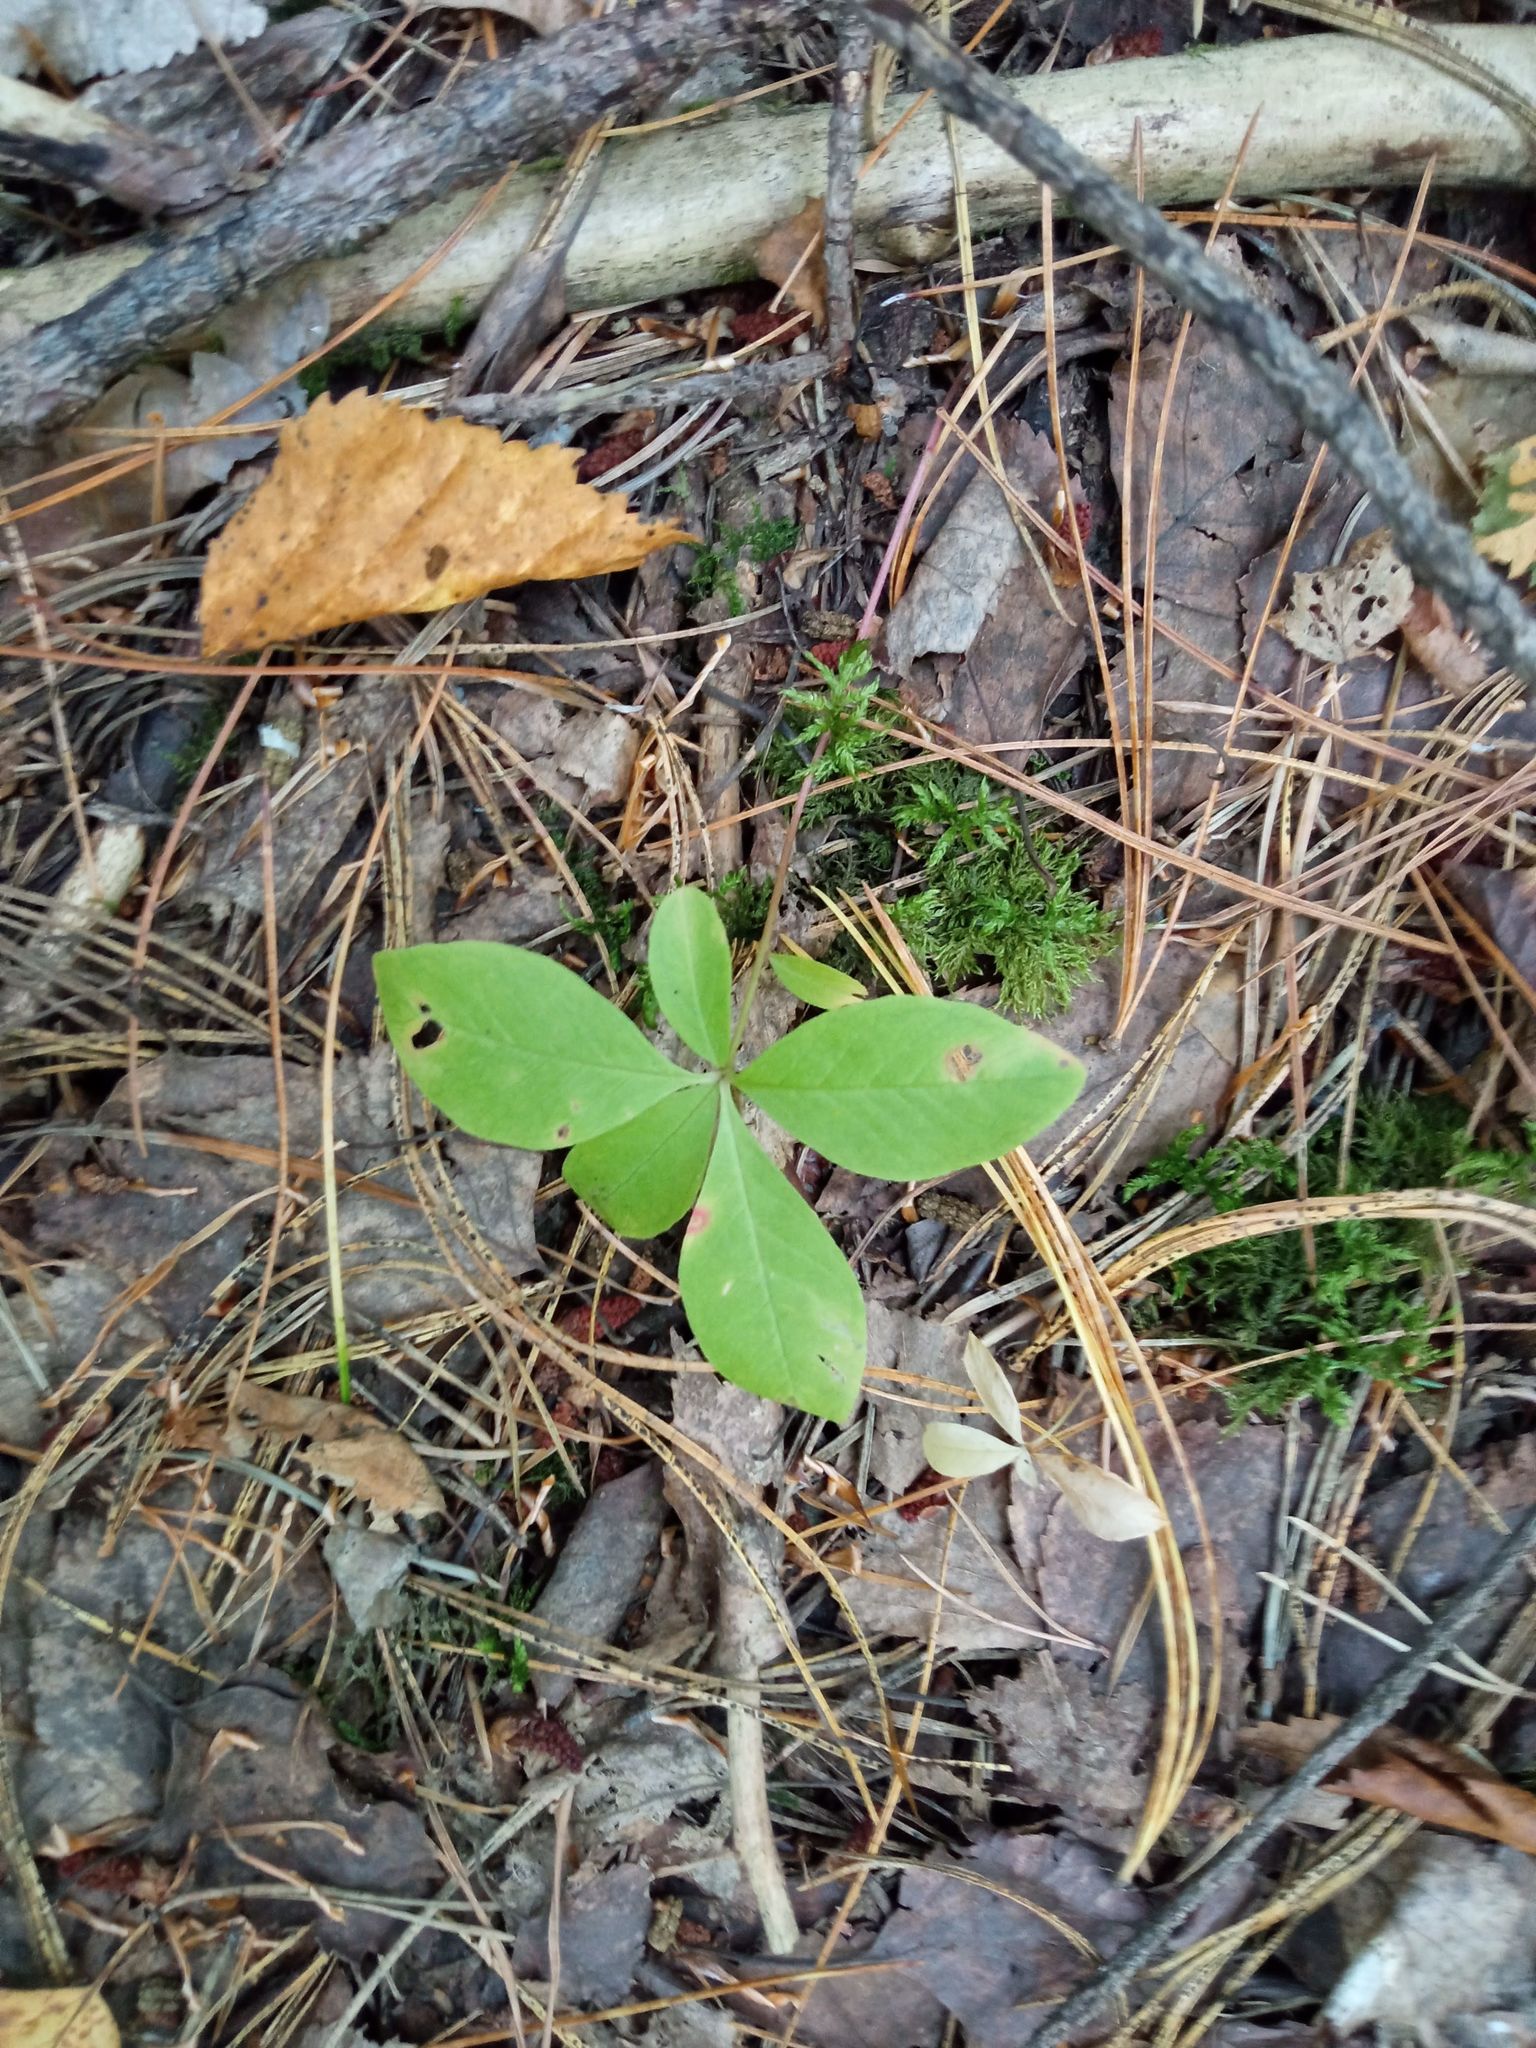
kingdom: Plantae
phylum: Tracheophyta
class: Magnoliopsida
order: Ericales
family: Primulaceae
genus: Lysimachia
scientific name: Lysimachia europaea
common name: Arctic starflower
